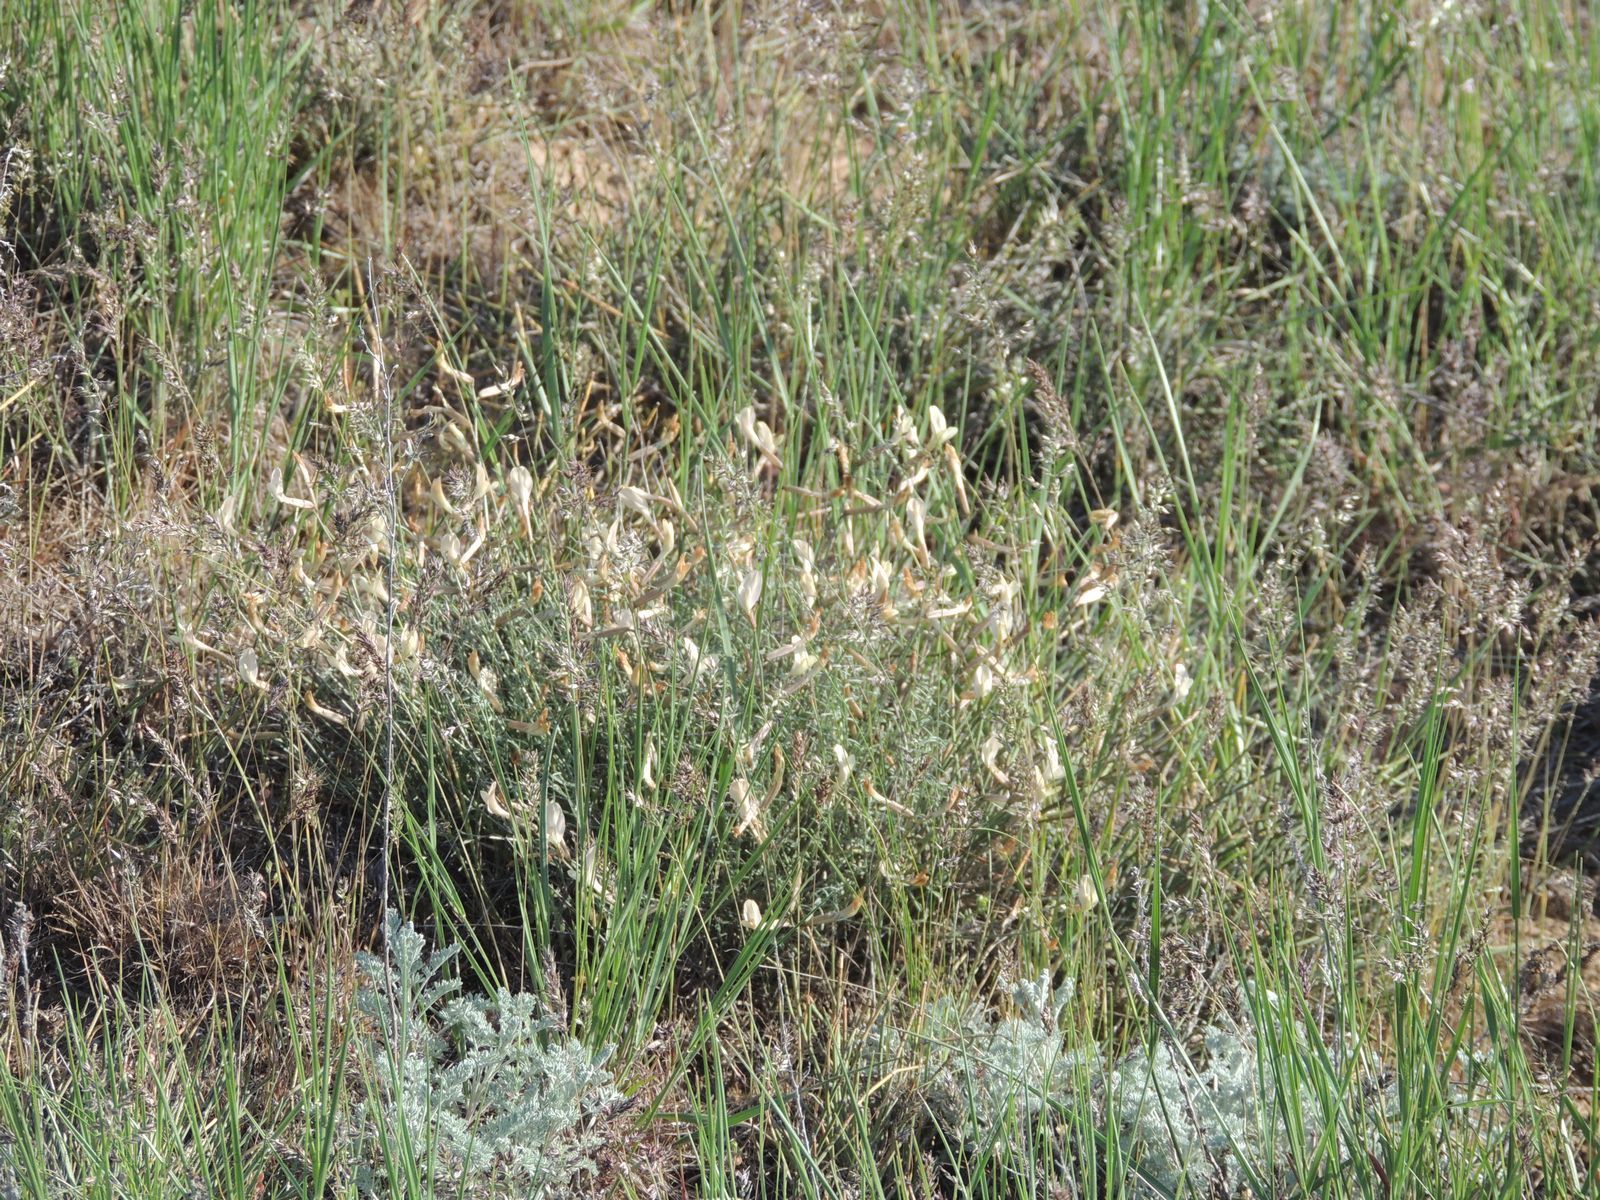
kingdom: Plantae
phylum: Tracheophyta
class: Magnoliopsida
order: Fabales
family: Fabaceae
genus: Astragalus
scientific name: Astragalus ucrainicus
